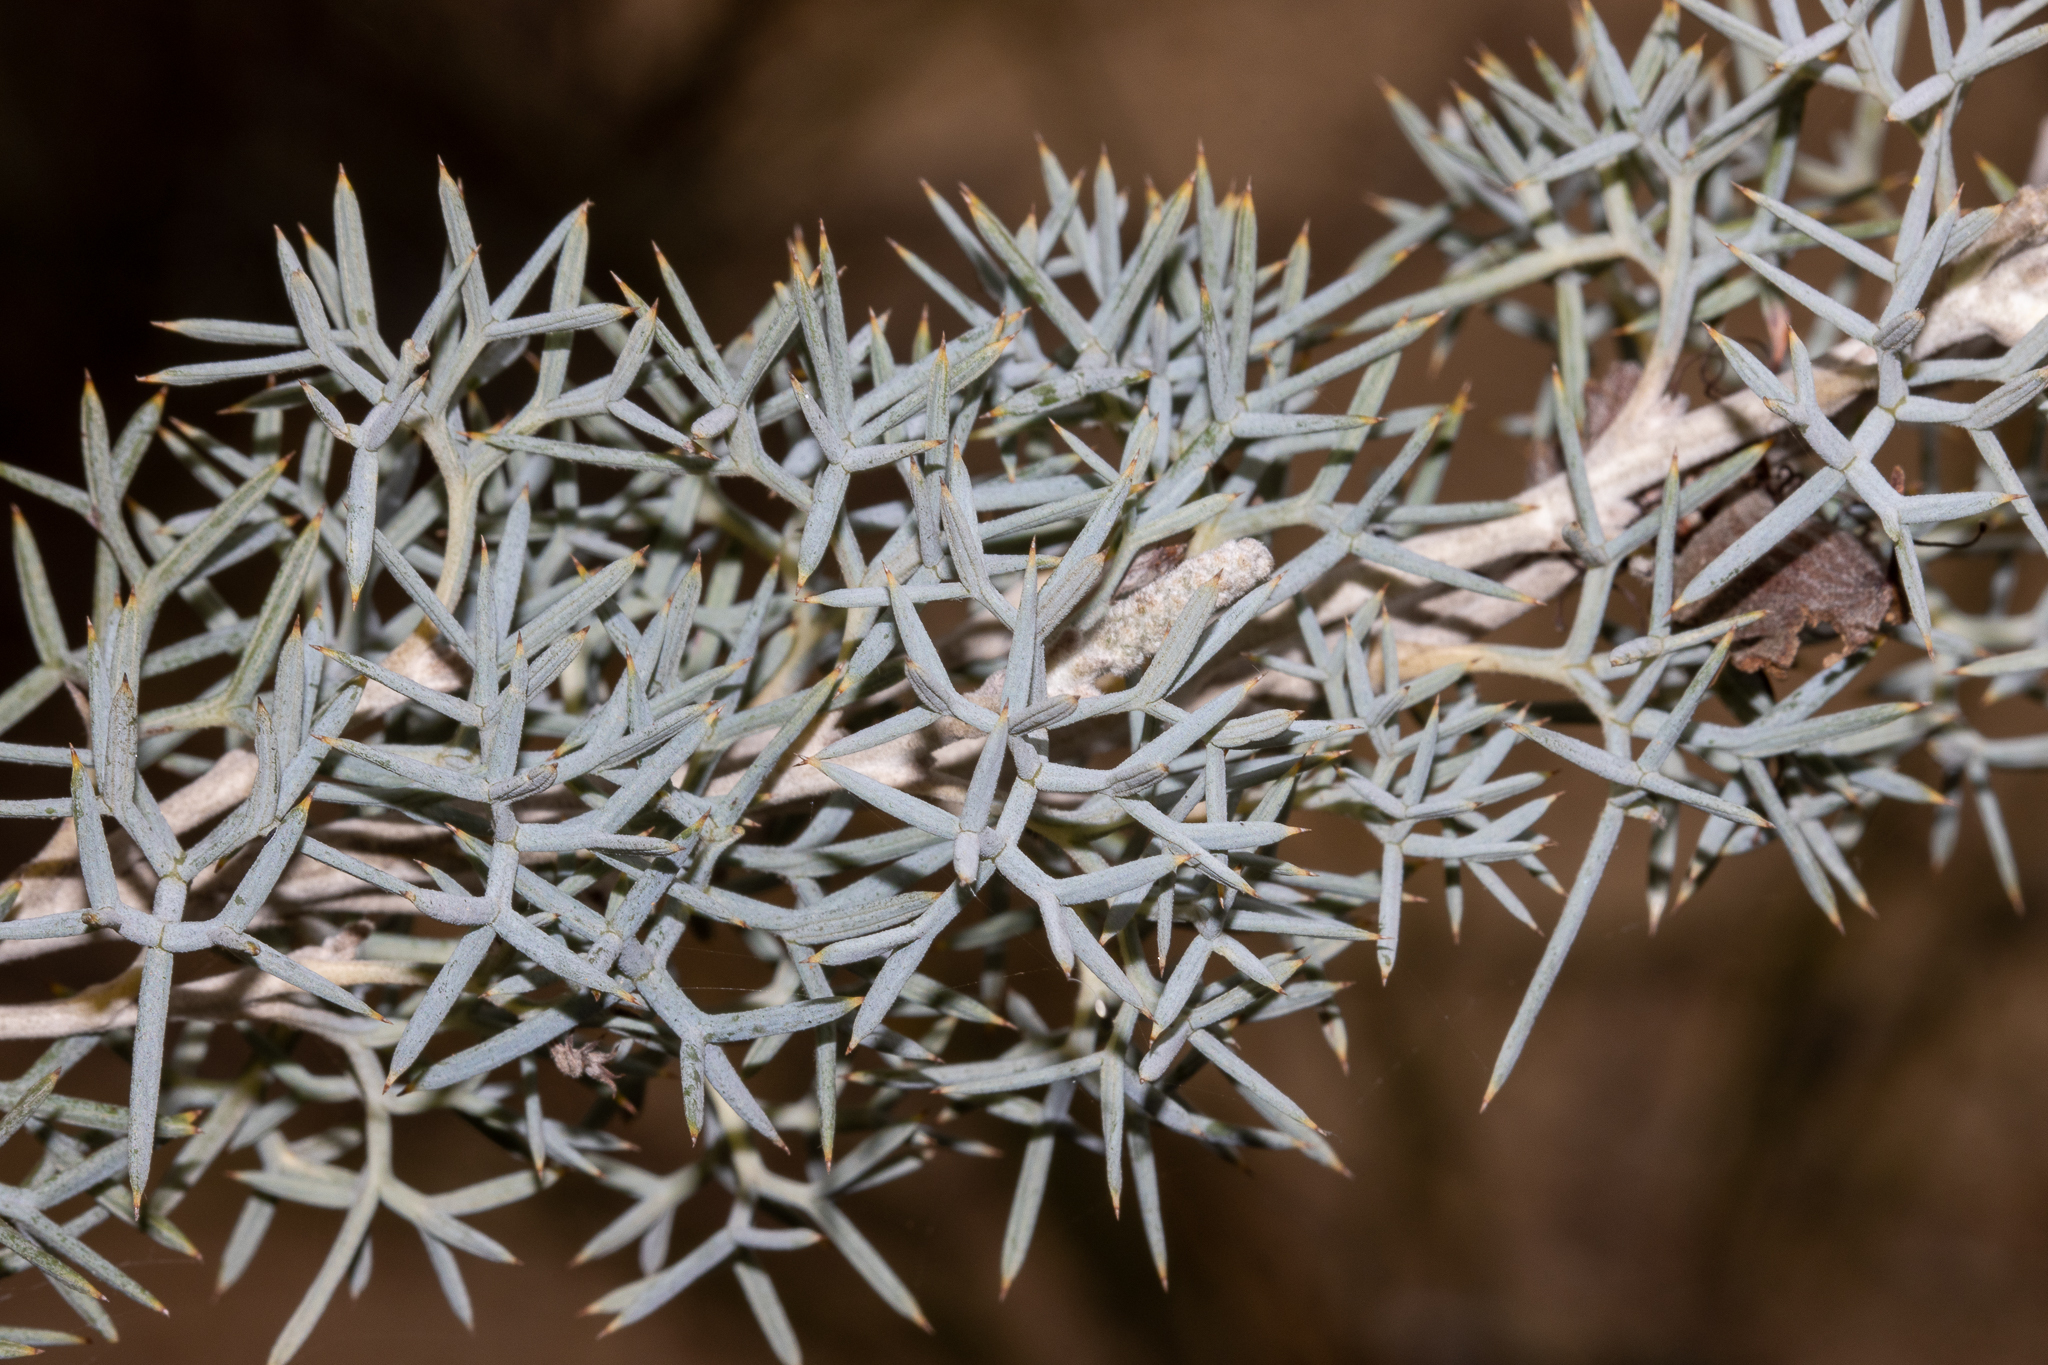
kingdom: Plantae
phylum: Tracheophyta
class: Magnoliopsida
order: Proteales
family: Proteaceae
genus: Grevillea
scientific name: Grevillea armigera
